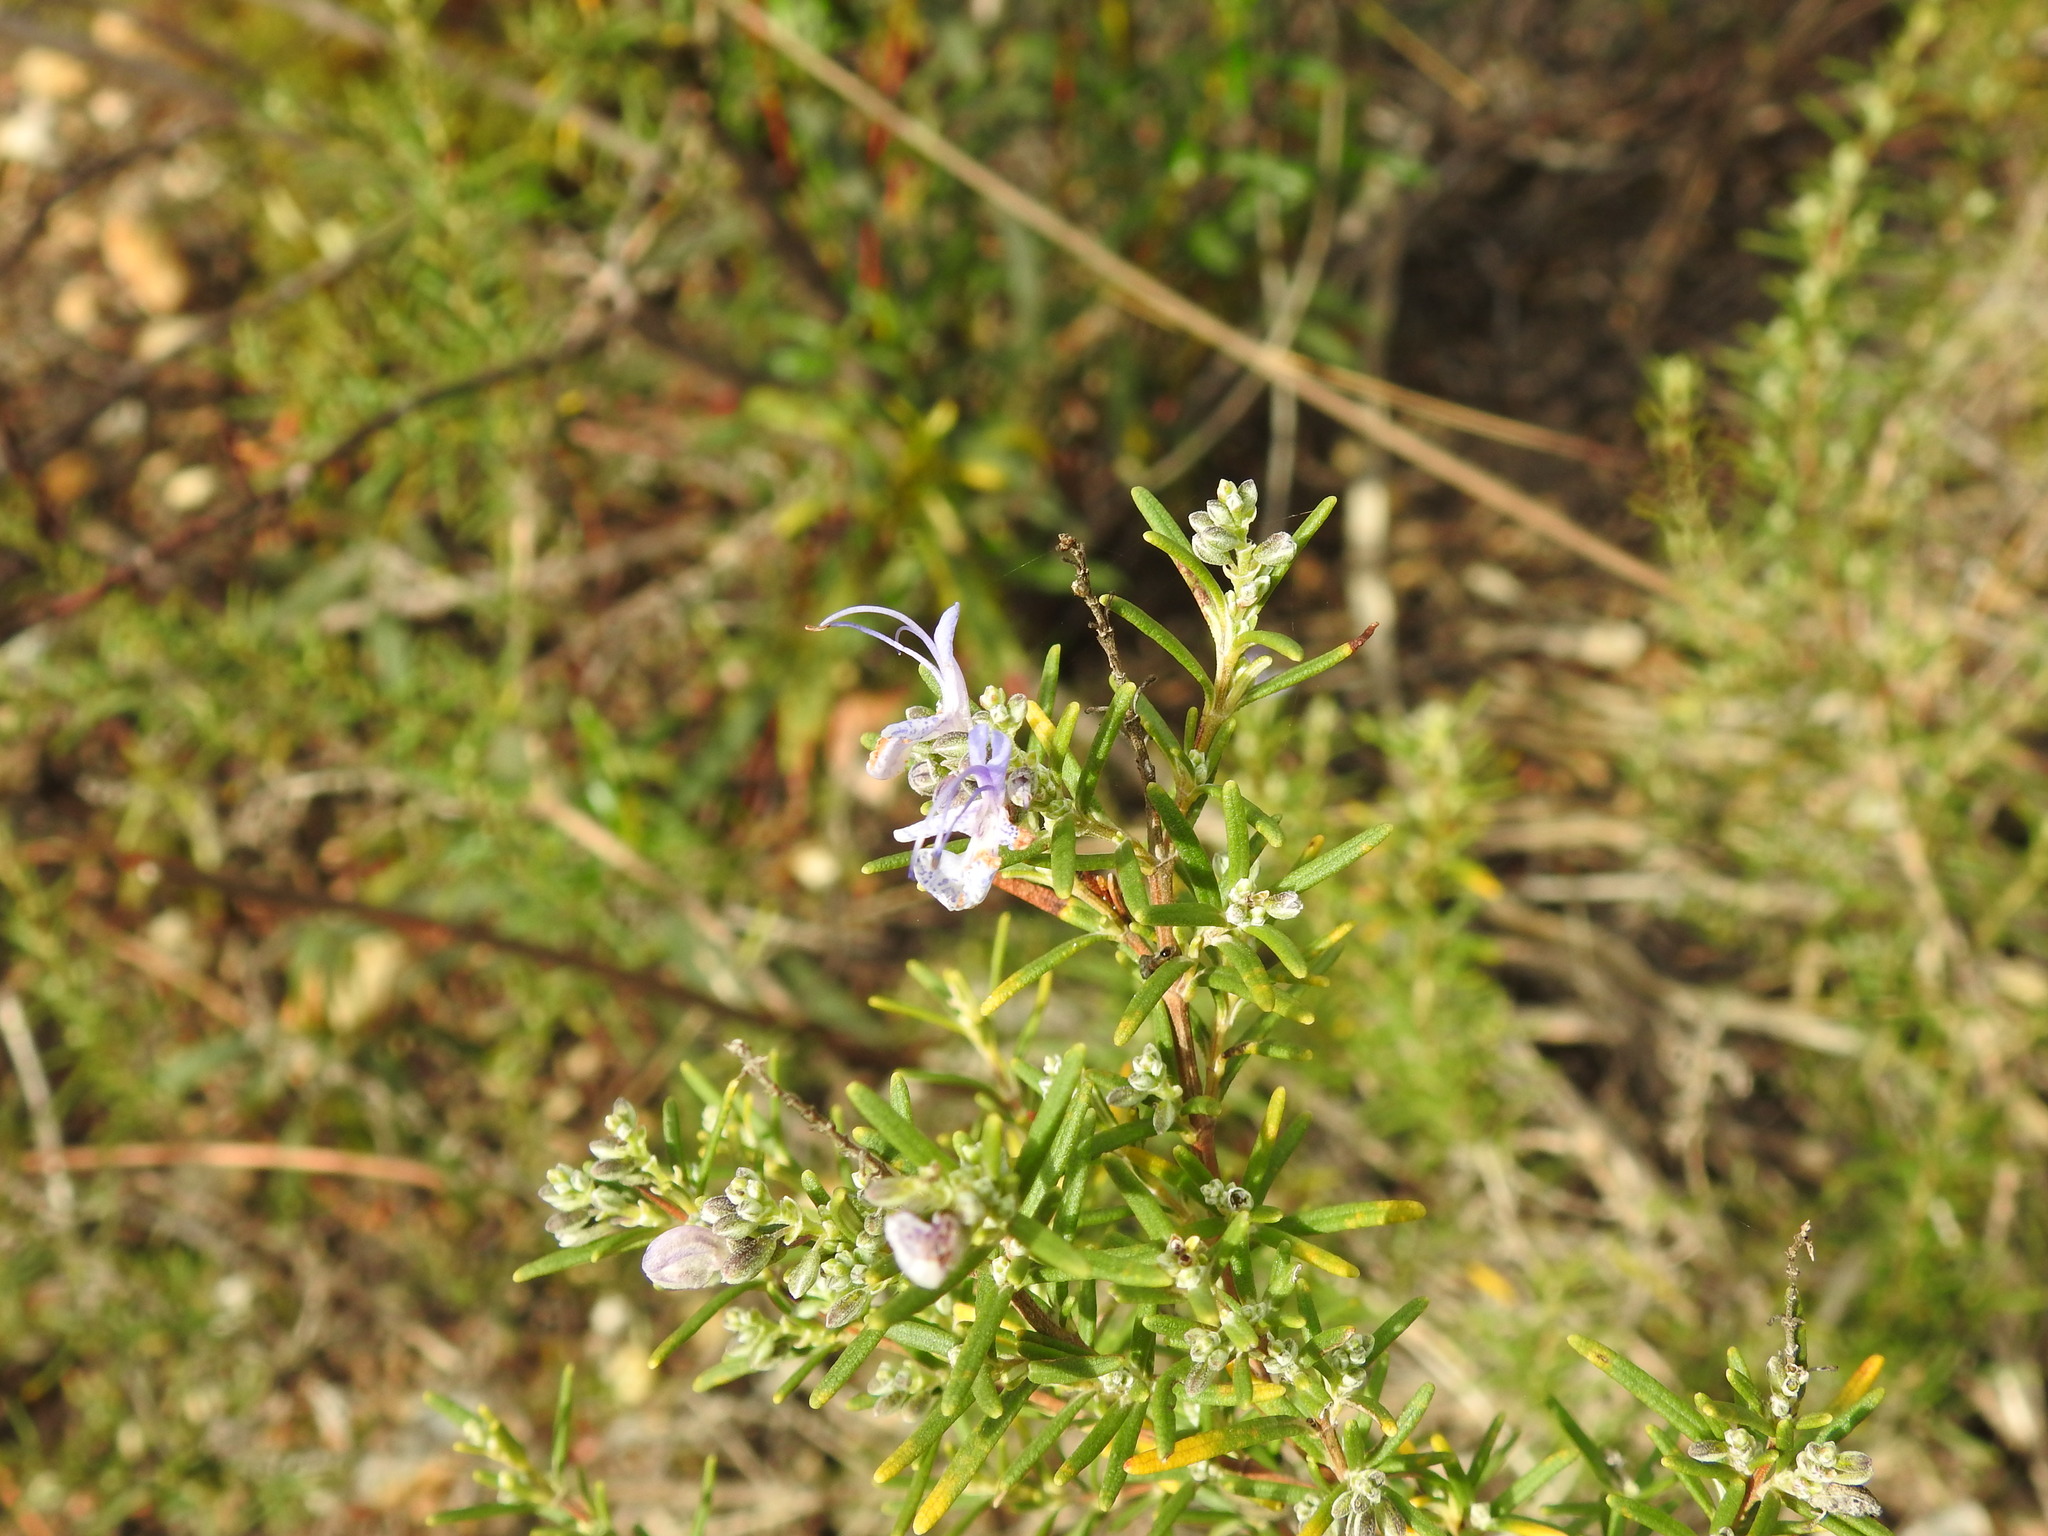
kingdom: Plantae
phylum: Tracheophyta
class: Magnoliopsida
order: Lamiales
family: Lamiaceae
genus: Salvia
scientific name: Salvia rosmarinus
